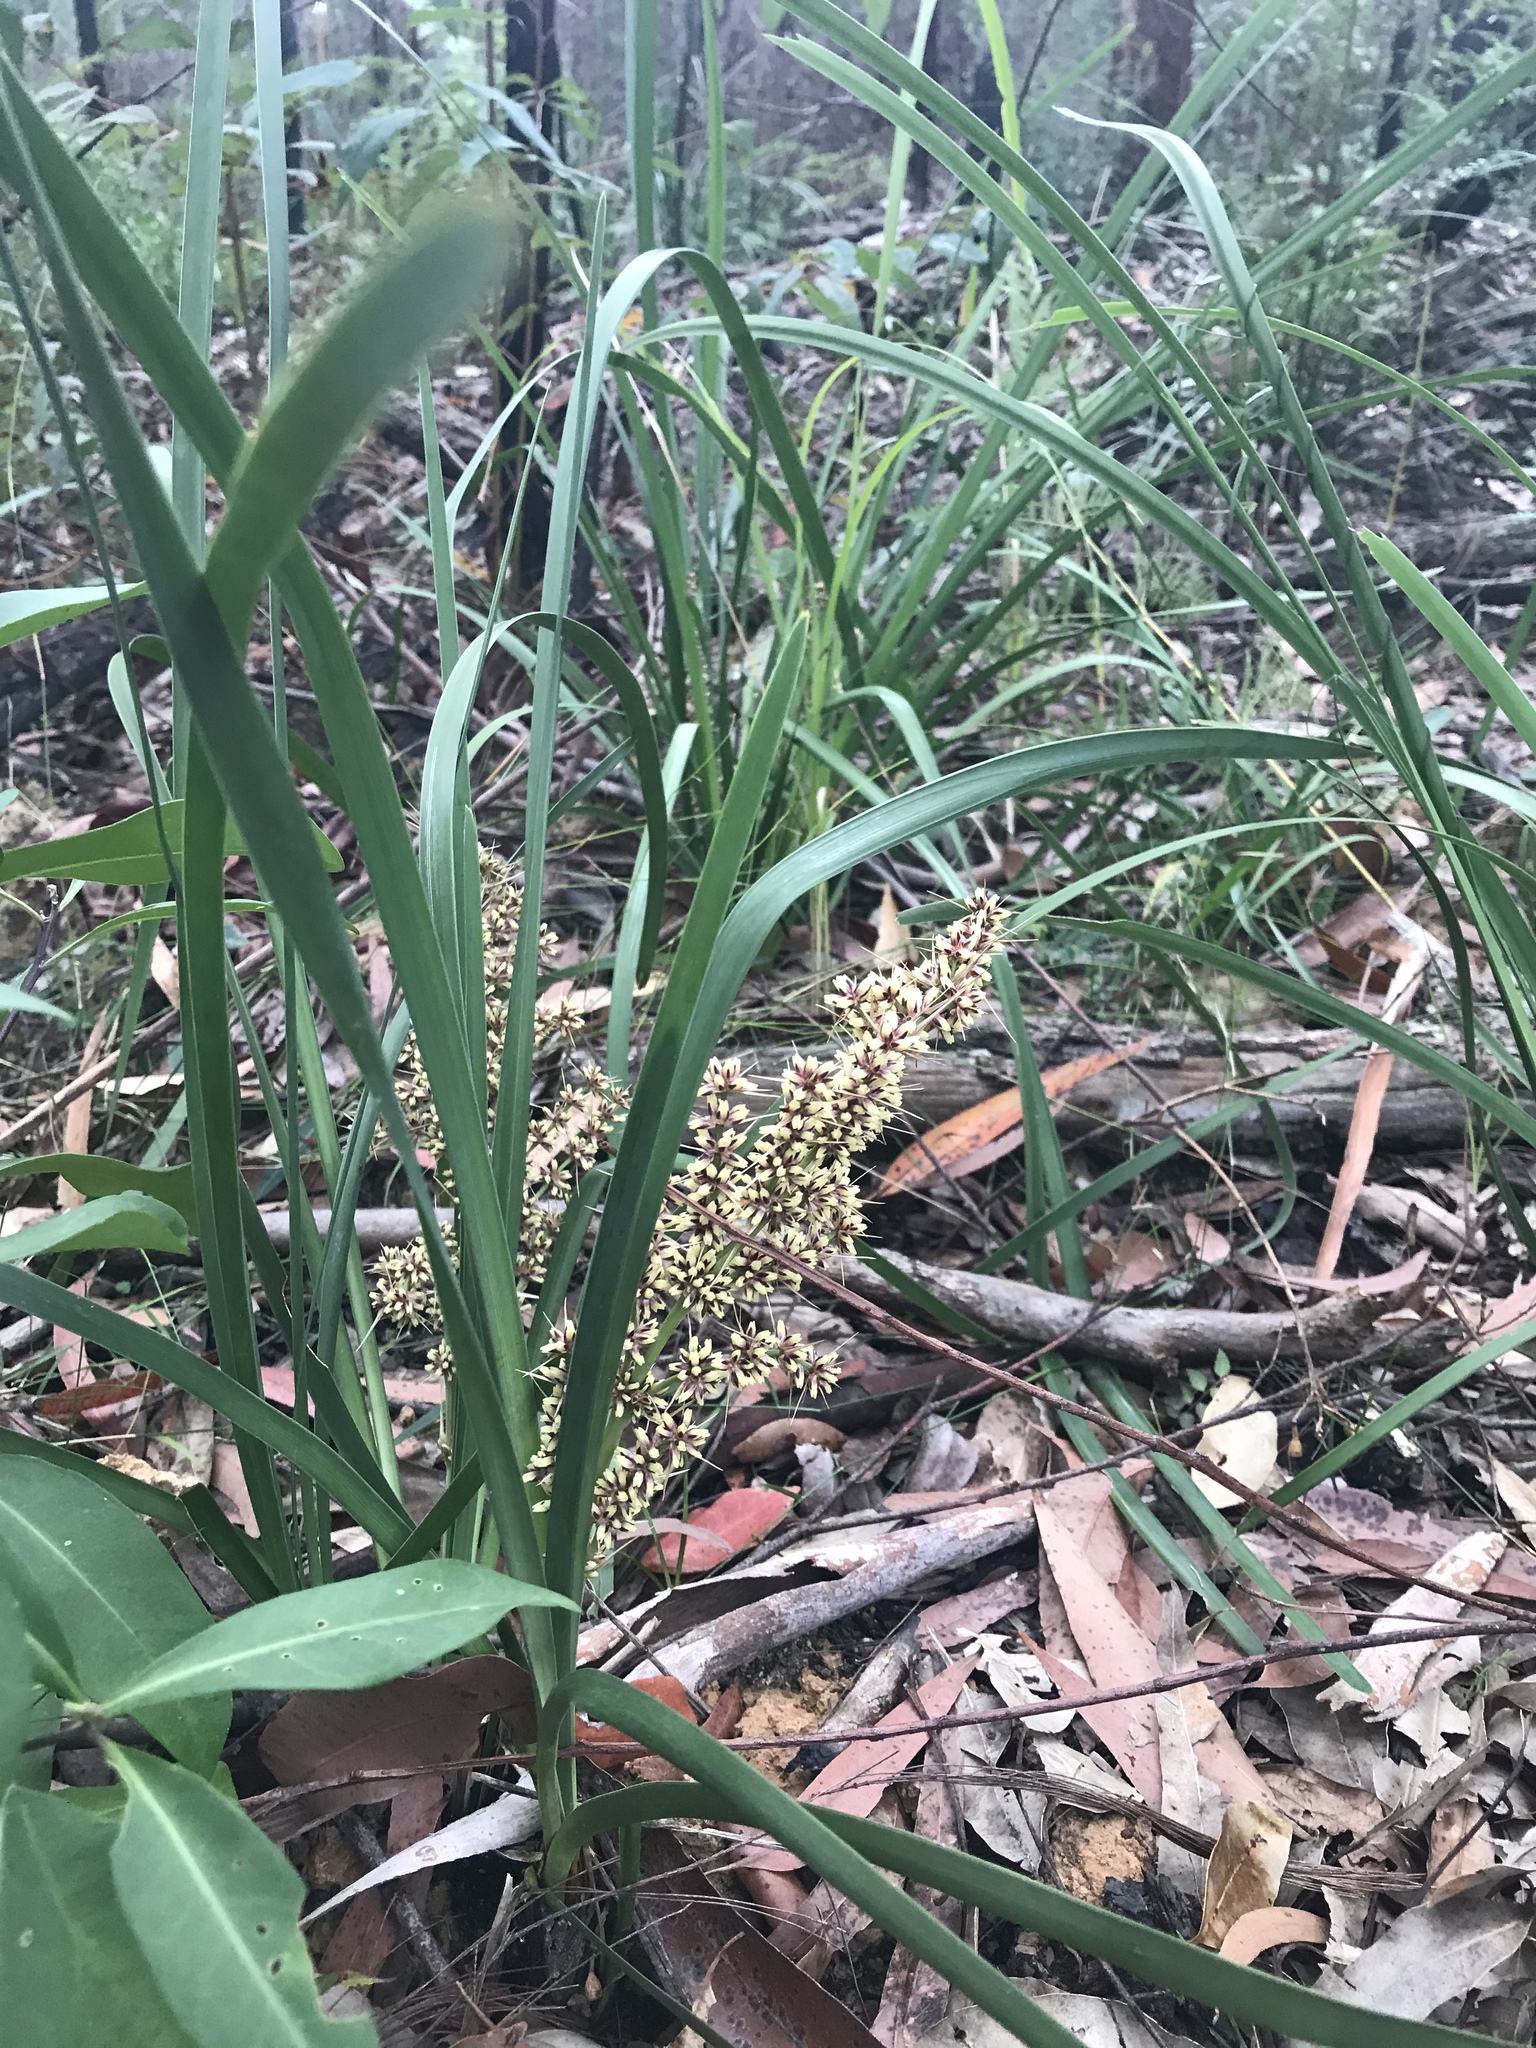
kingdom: Plantae
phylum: Tracheophyta
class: Liliopsida
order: Asparagales
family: Asparagaceae
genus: Lomandra
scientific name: Lomandra longifolia
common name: Longleaf mat-rush
